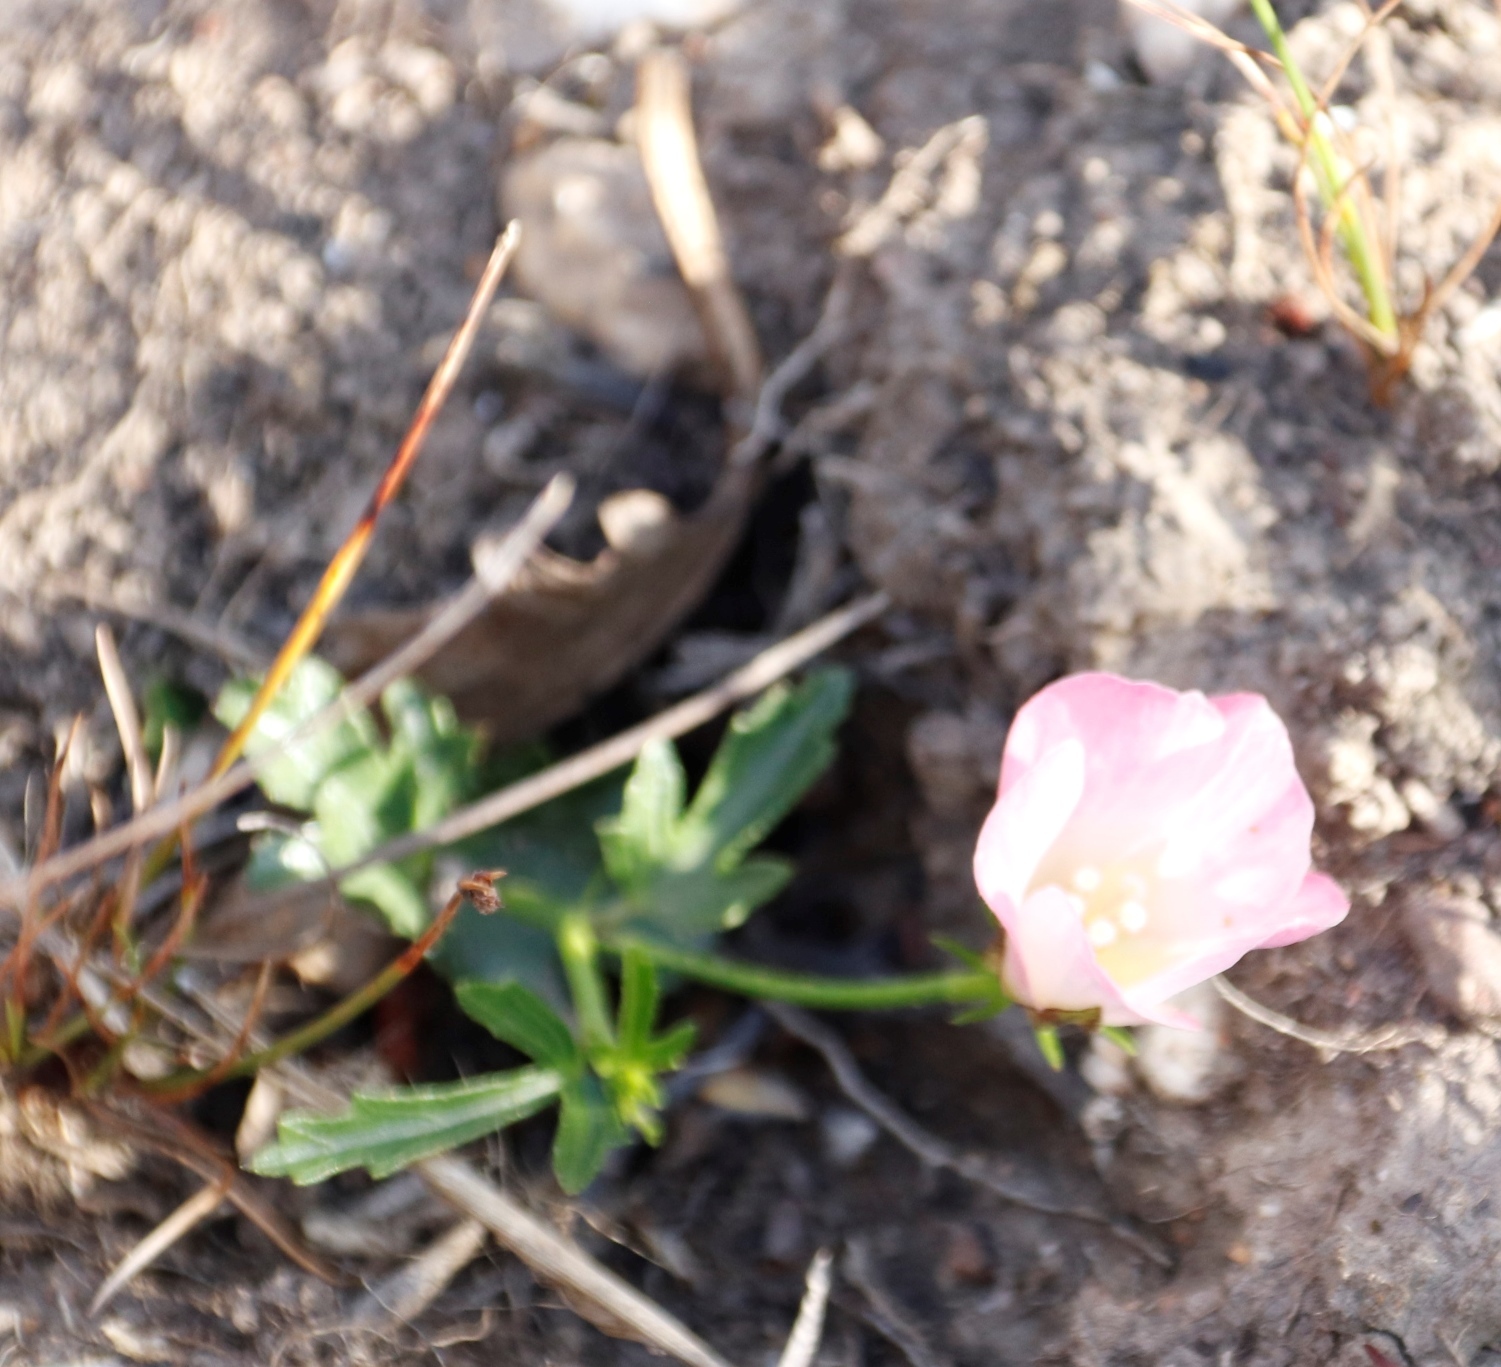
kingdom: Plantae
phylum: Tracheophyta
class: Magnoliopsida
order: Malvales
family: Malvaceae
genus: Hibiscus
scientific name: Hibiscus pusillus
